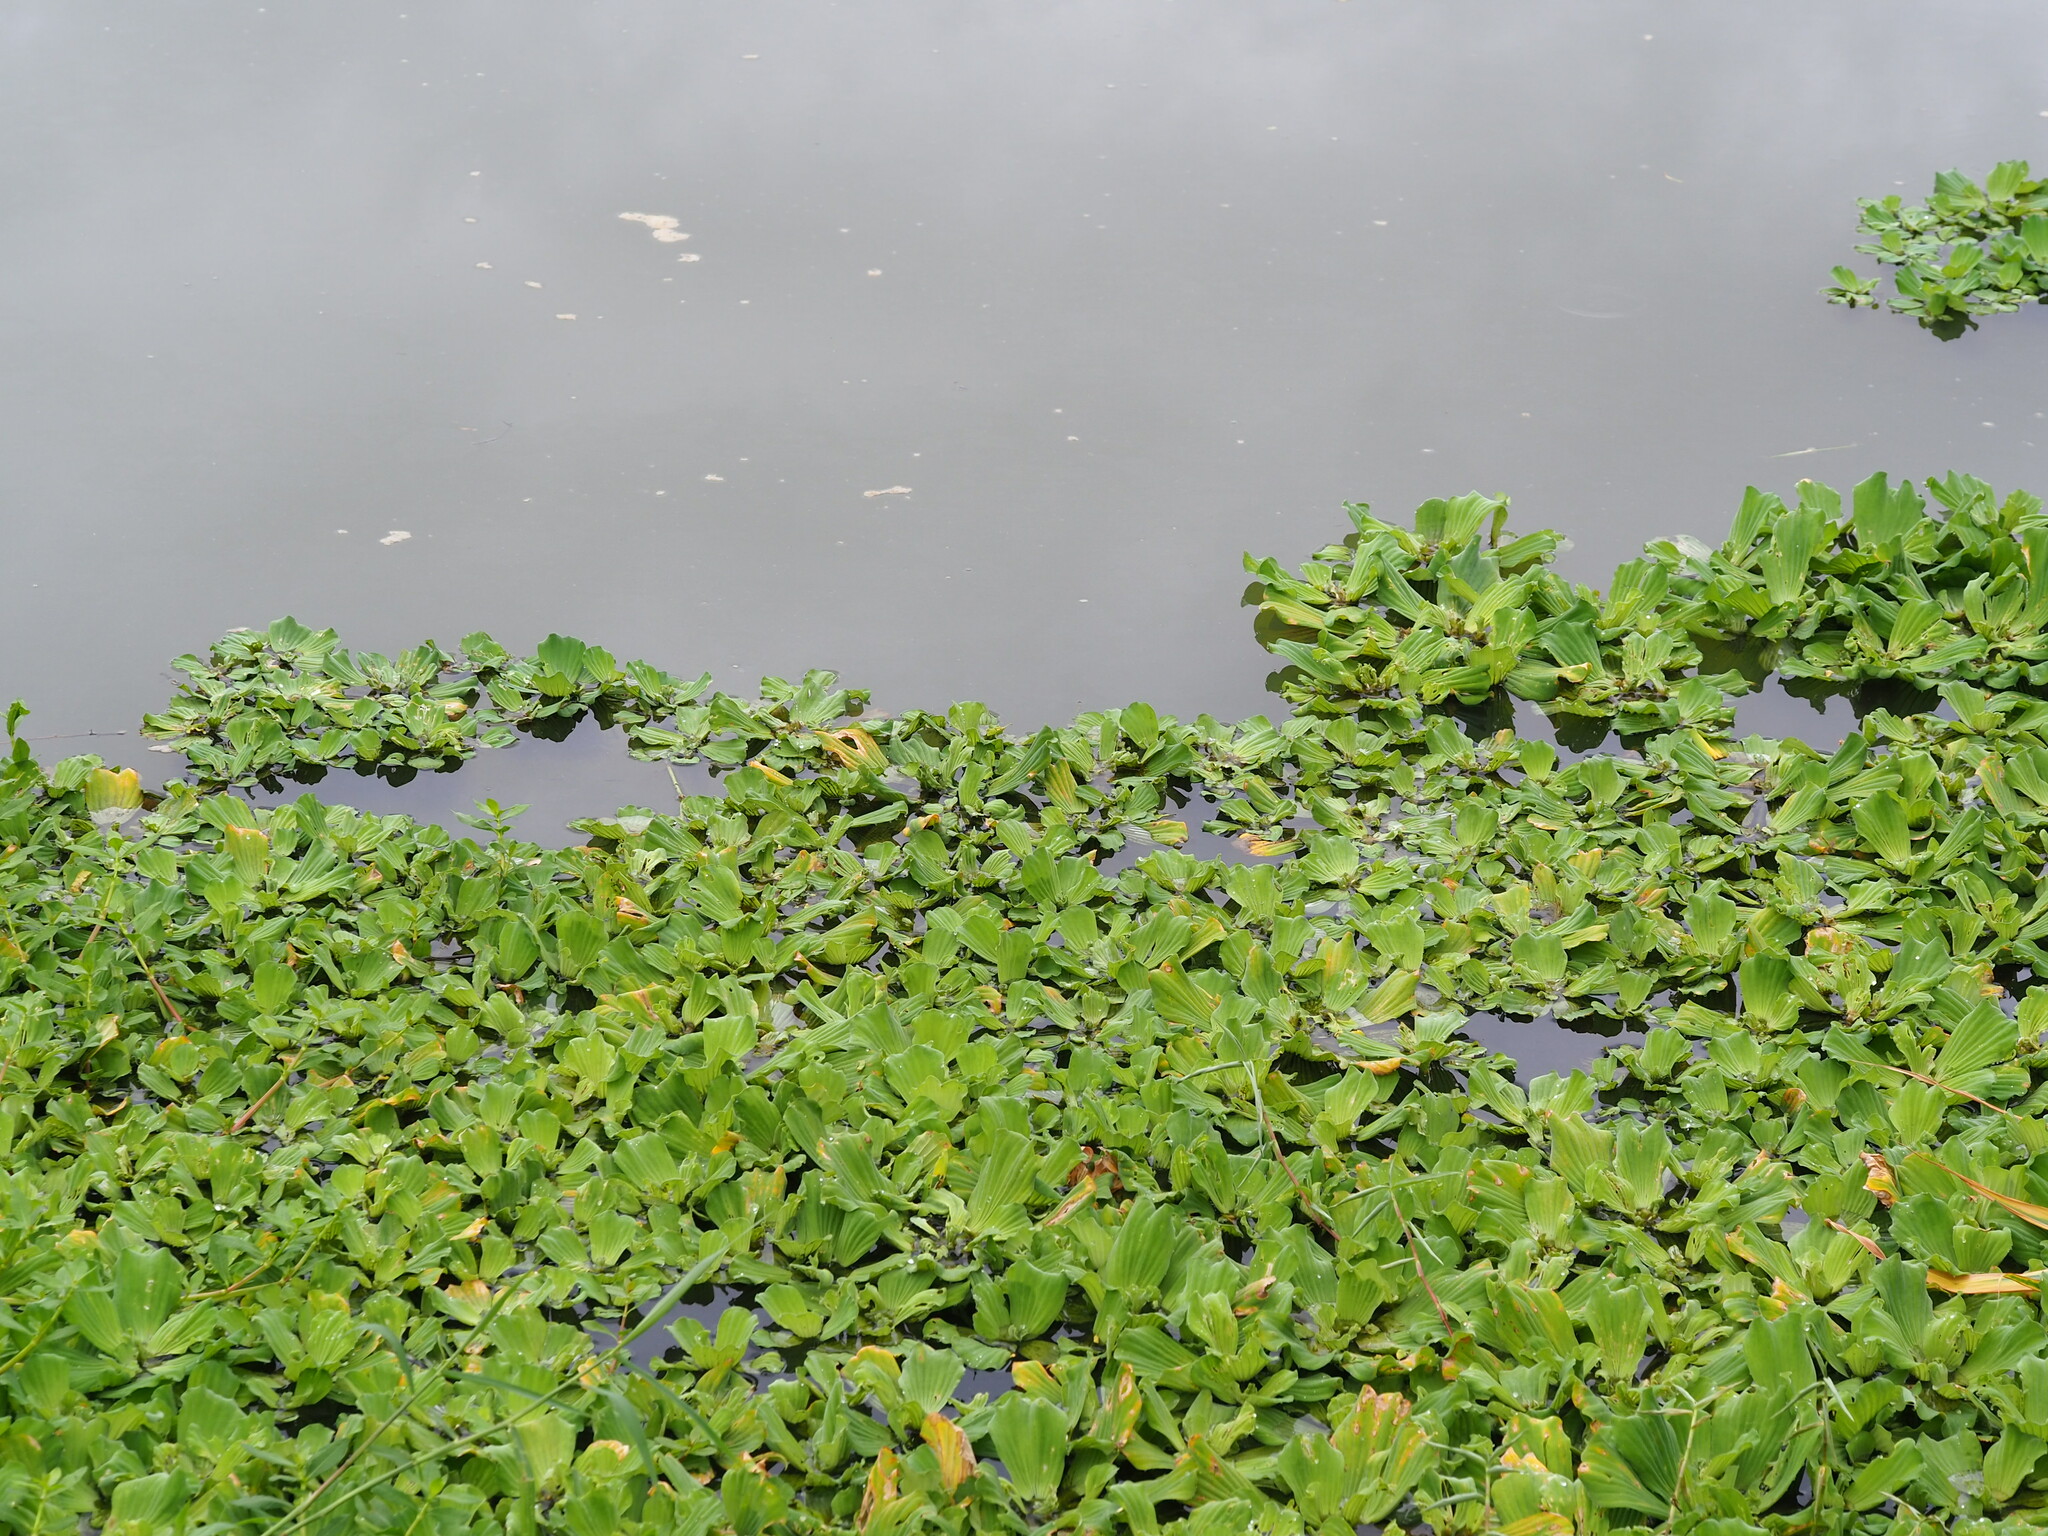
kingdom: Plantae
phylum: Tracheophyta
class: Liliopsida
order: Alismatales
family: Araceae
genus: Pistia
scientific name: Pistia stratiotes
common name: Water lettuce
